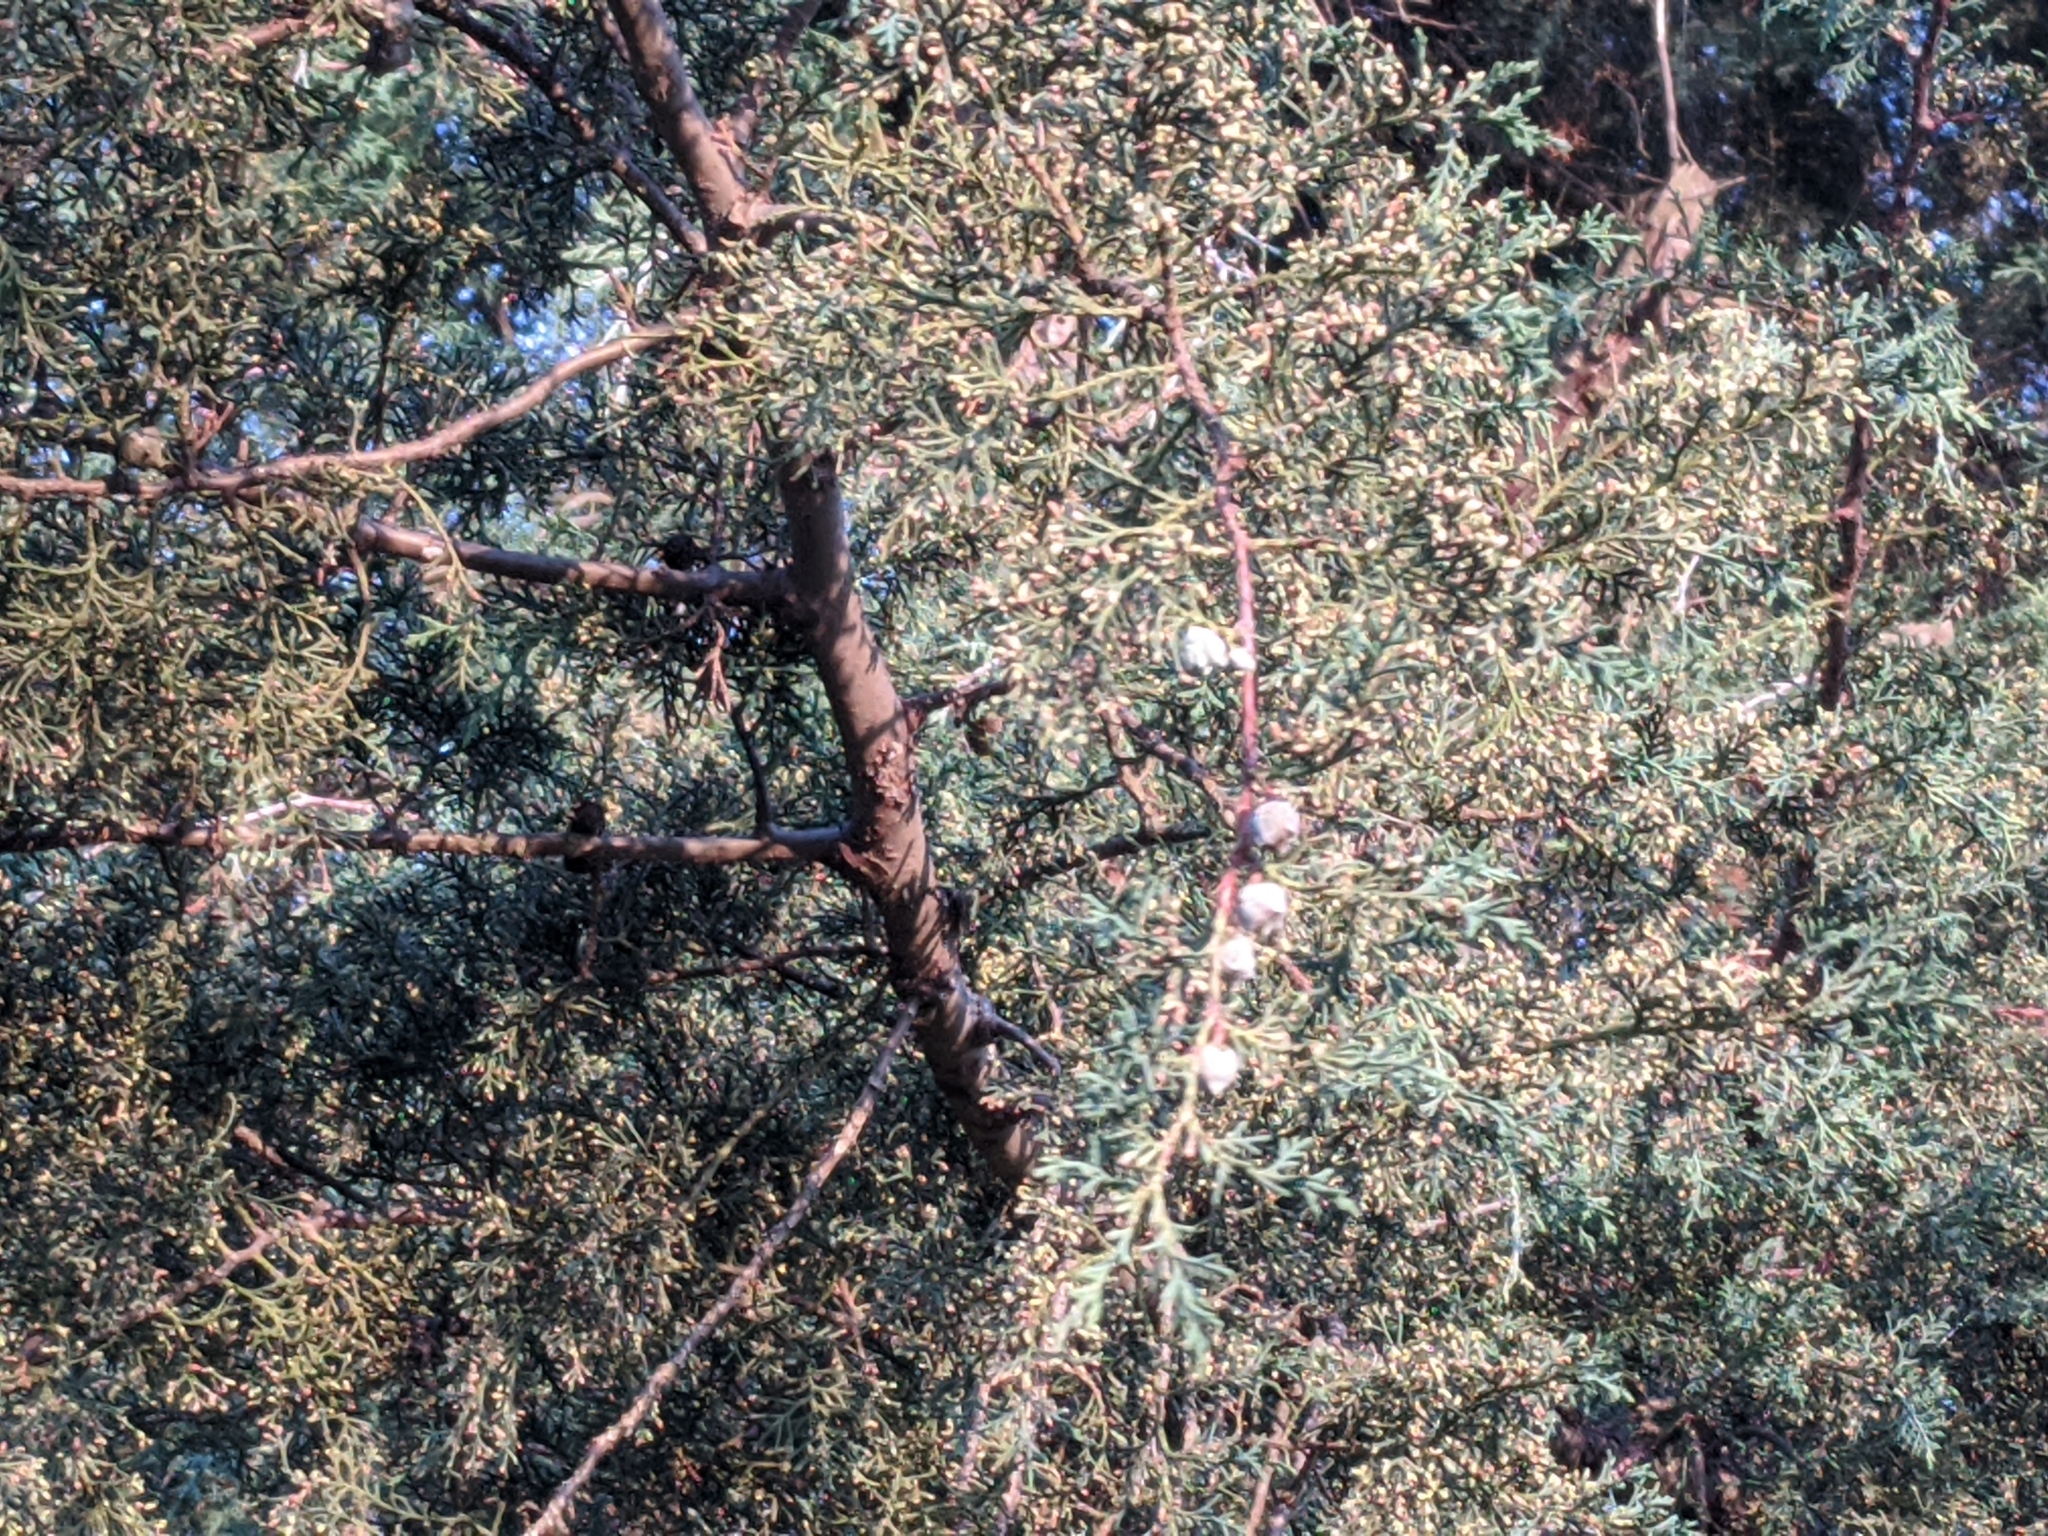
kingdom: Plantae
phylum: Tracheophyta
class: Pinopsida
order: Pinales
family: Cupressaceae
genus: Cupressus
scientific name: Cupressus lusitanica
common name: Mexican cypress
